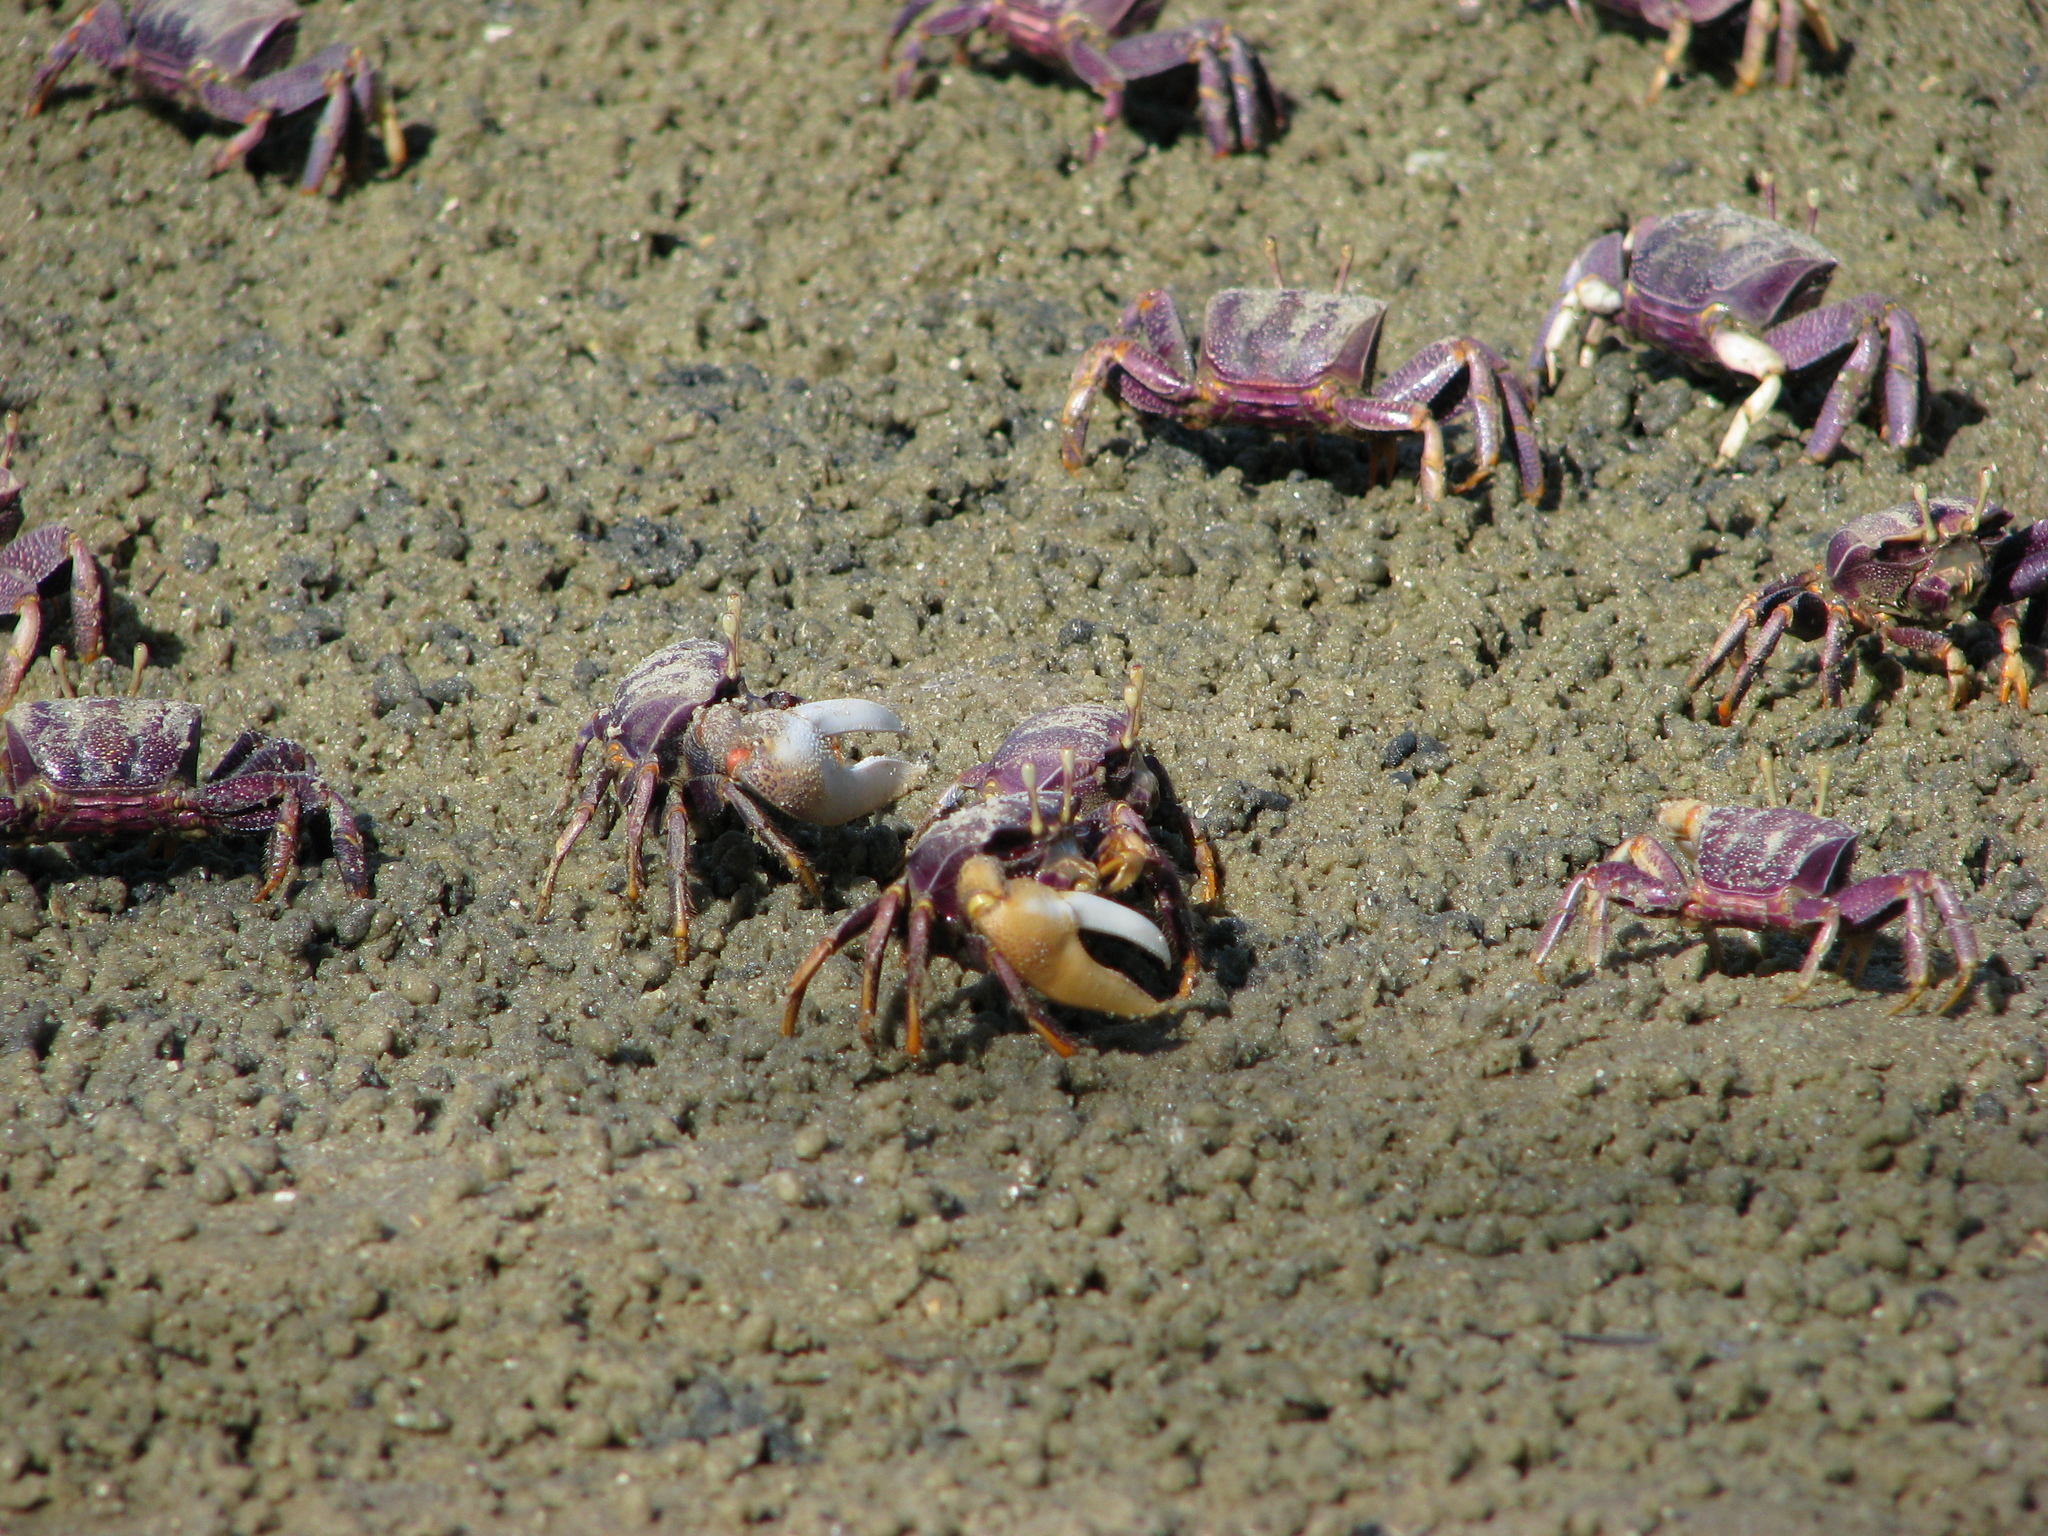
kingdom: Animalia
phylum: Arthropoda
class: Malacostraca
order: Decapoda
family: Ocypodidae
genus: Afruca
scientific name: Afruca tangeri
